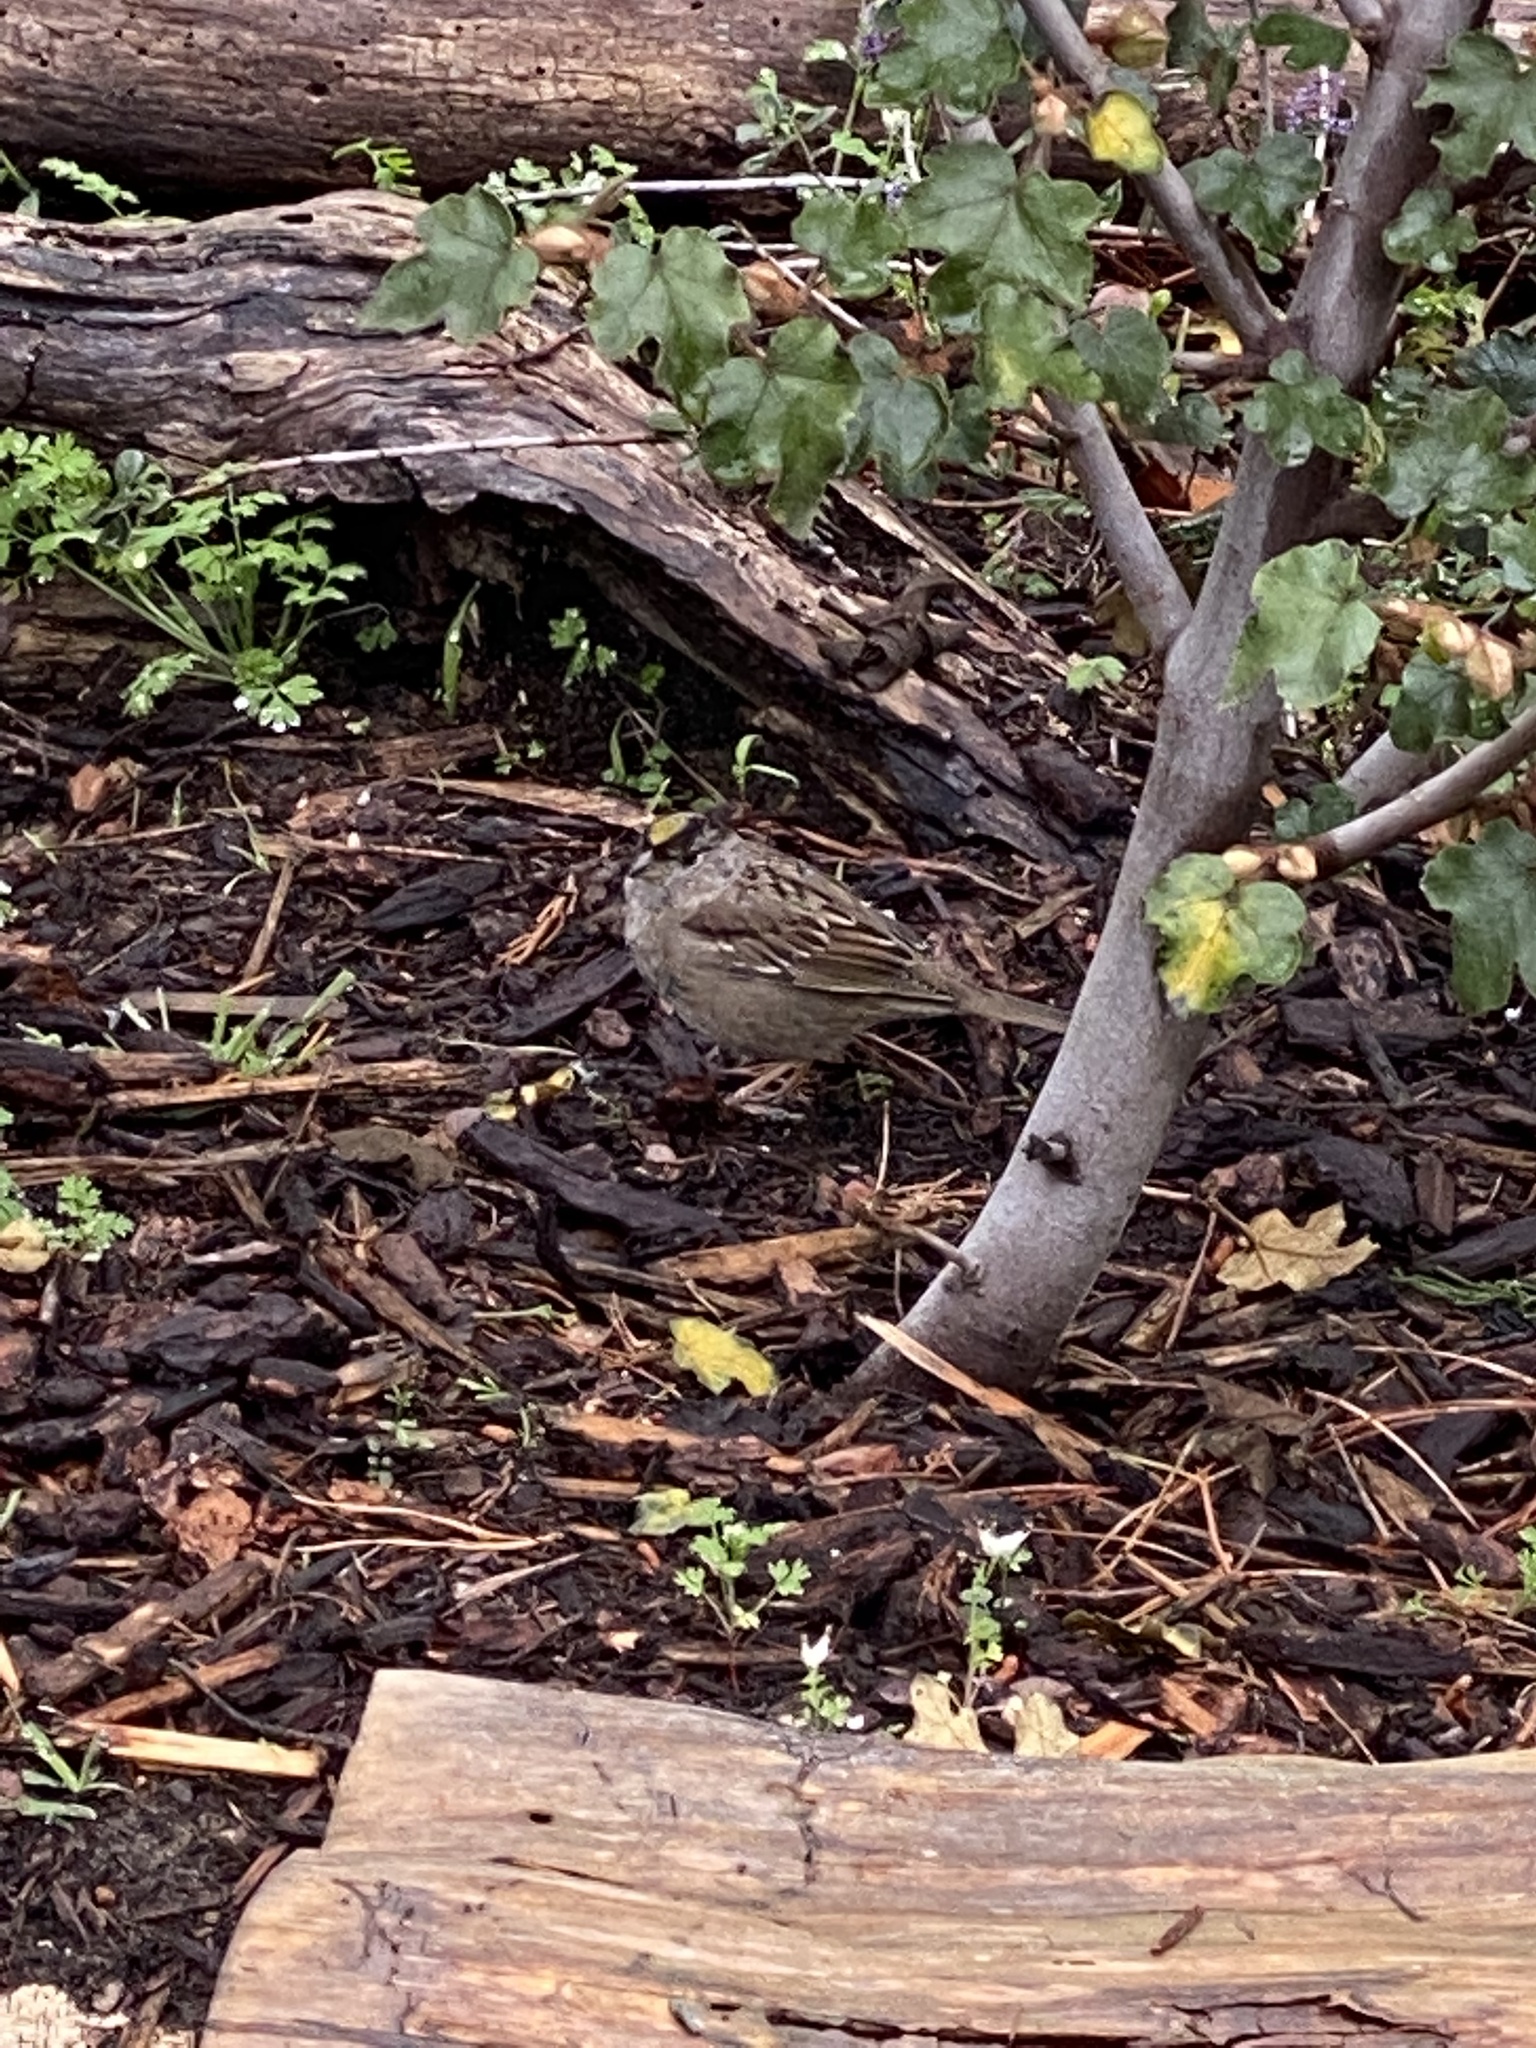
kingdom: Animalia
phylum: Chordata
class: Aves
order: Passeriformes
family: Passerellidae
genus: Zonotrichia
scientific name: Zonotrichia atricapilla
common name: Golden-crowned sparrow
